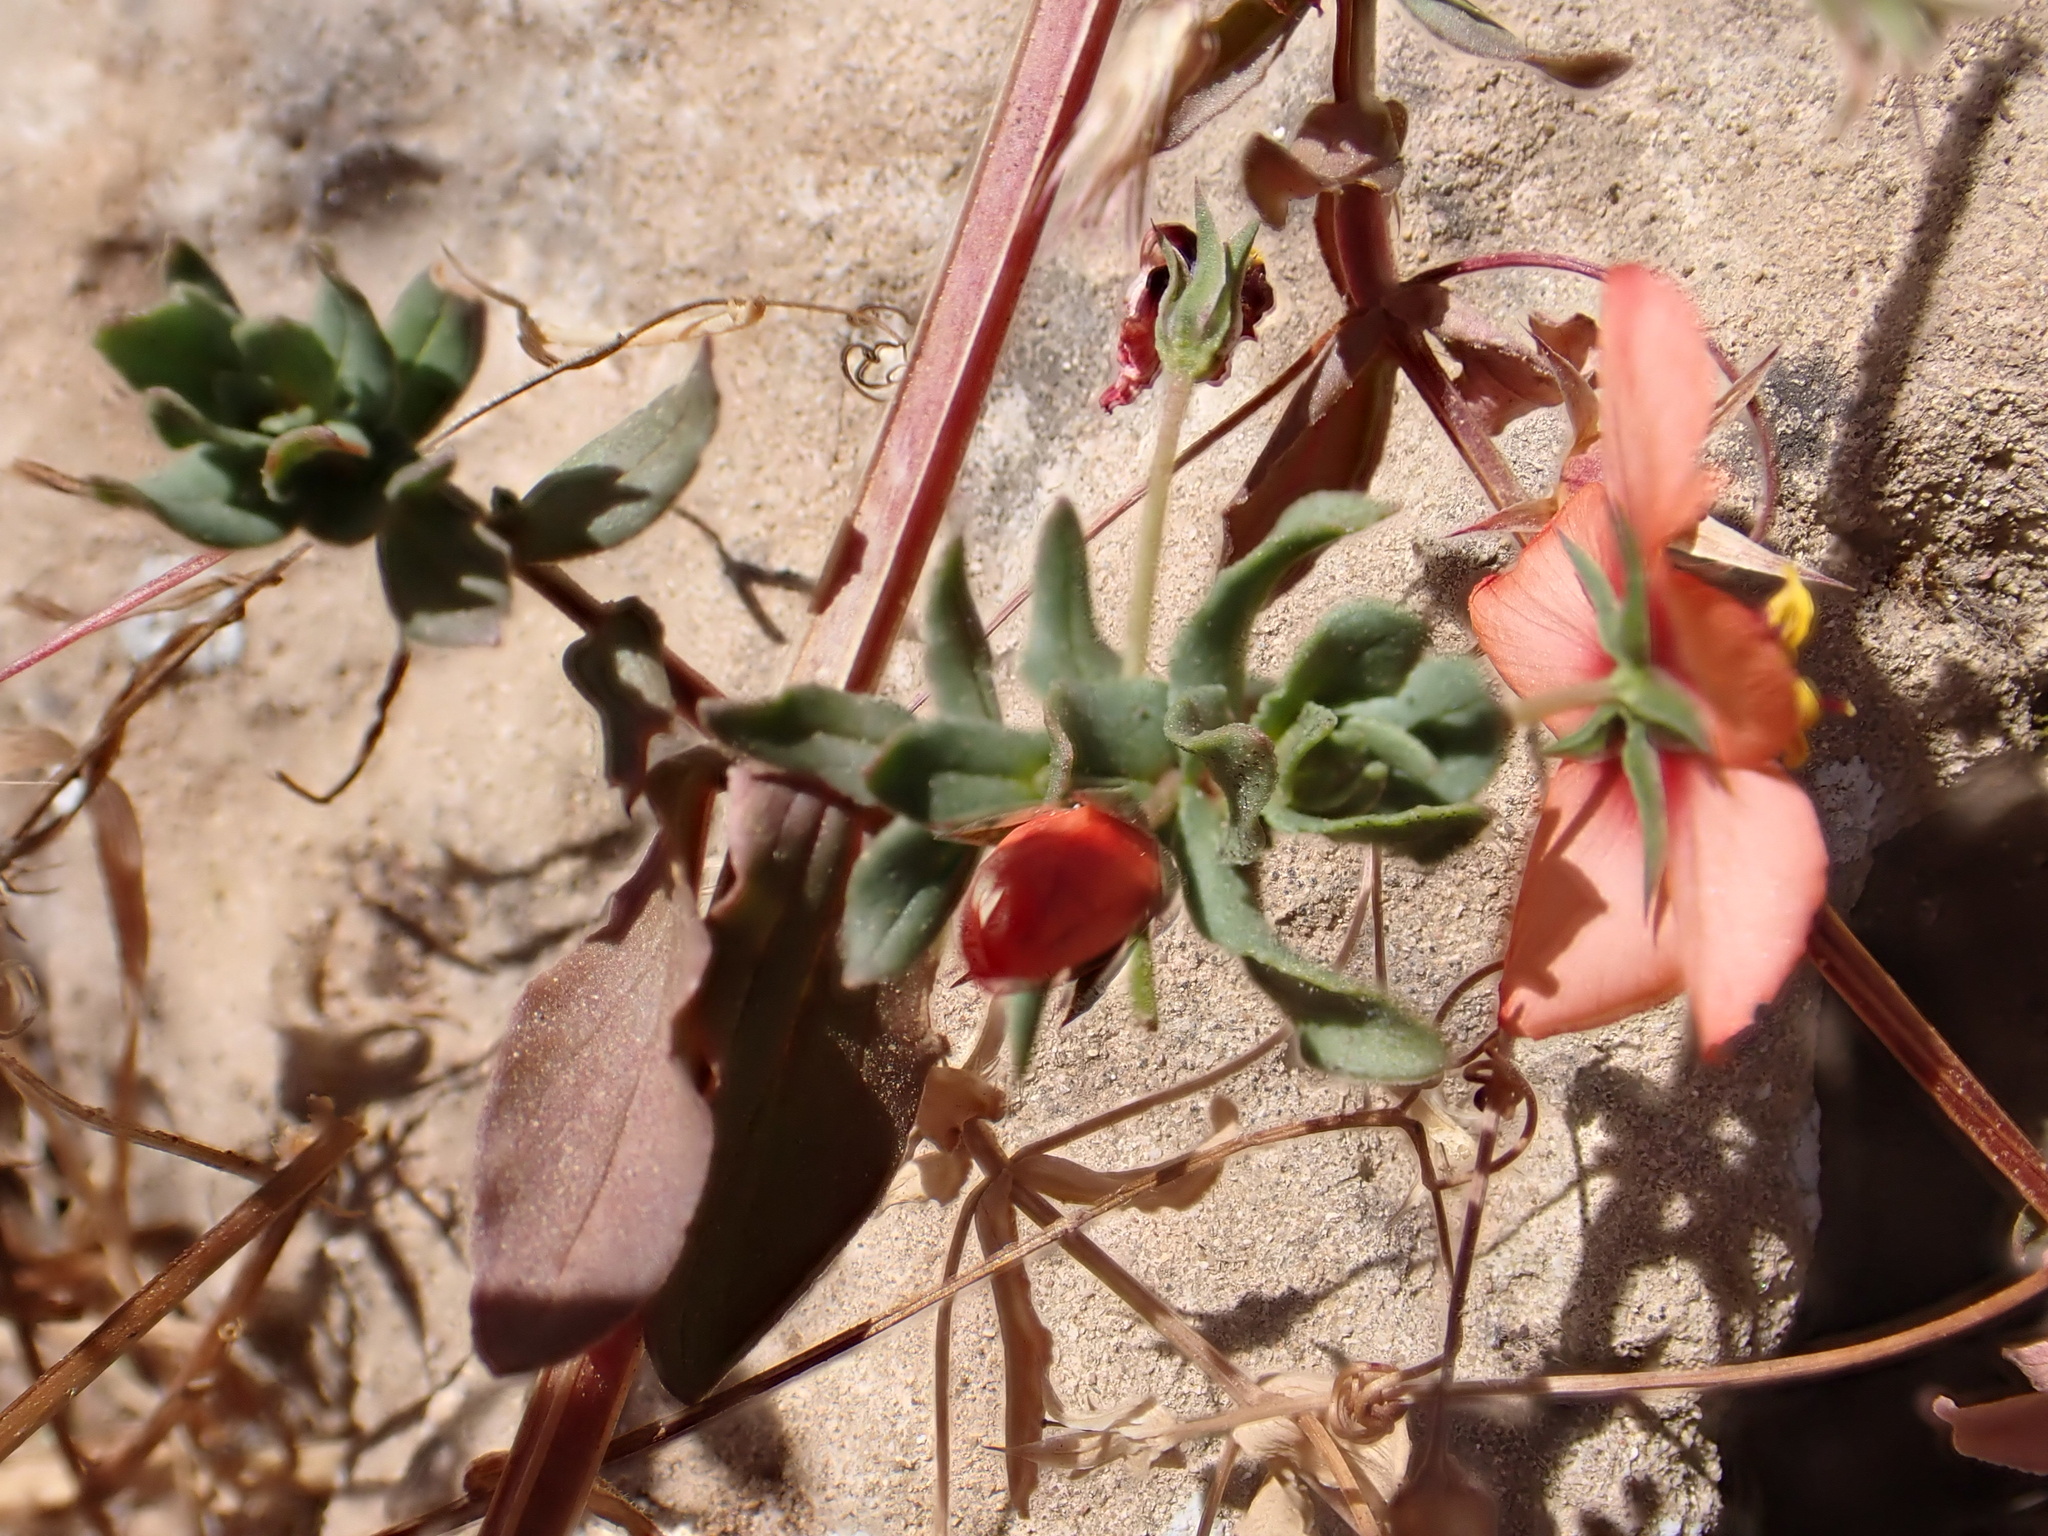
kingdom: Plantae
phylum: Tracheophyta
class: Magnoliopsida
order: Ericales
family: Primulaceae
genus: Lysimachia
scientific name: Lysimachia arvensis
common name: Scarlet pimpernel
